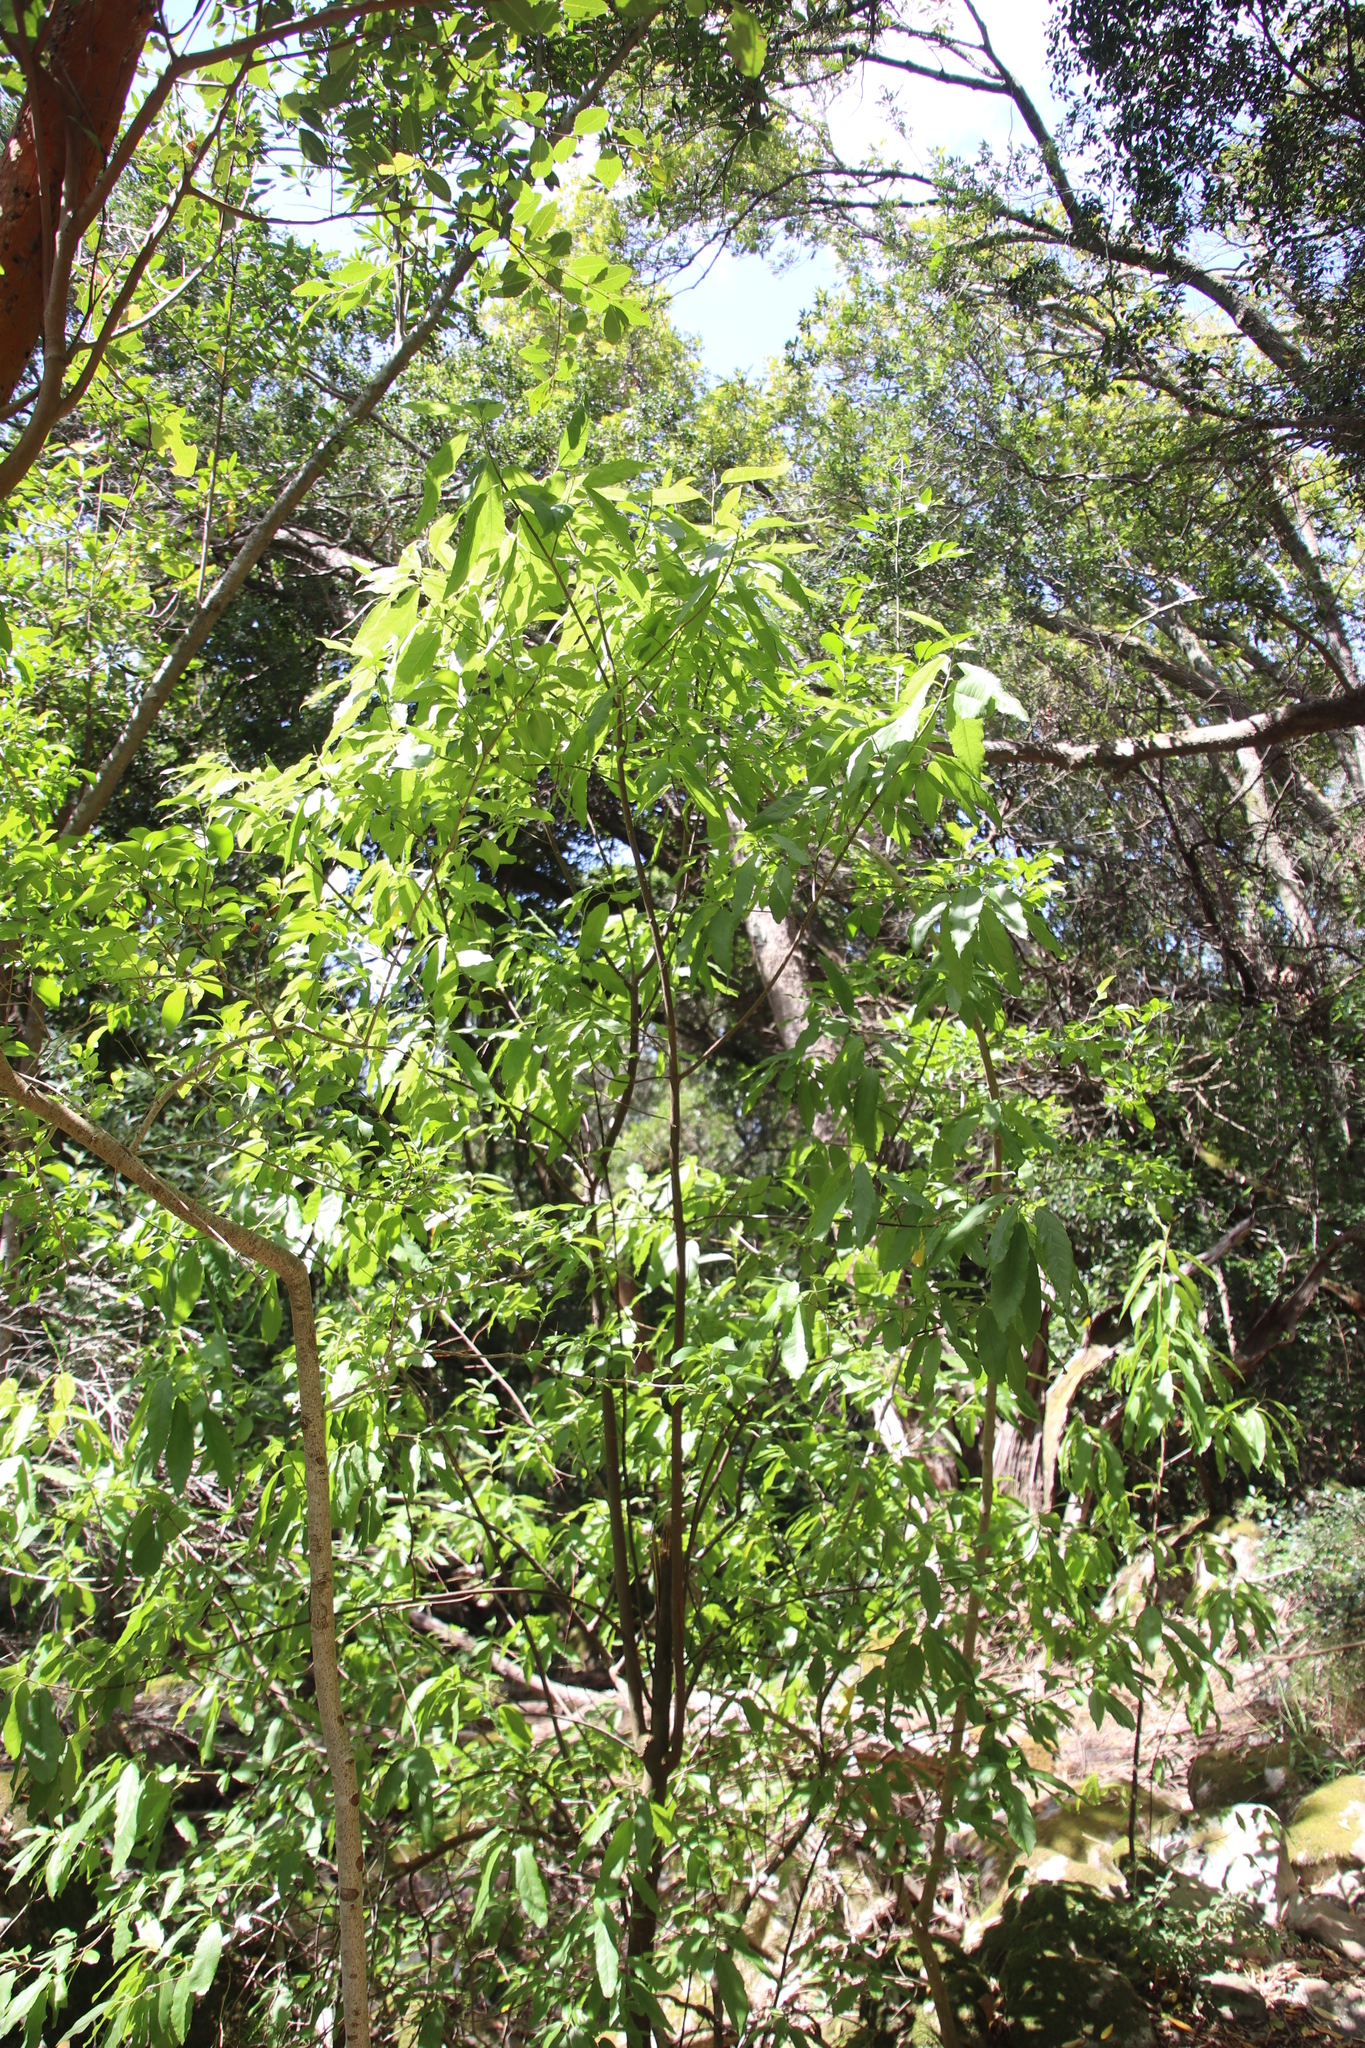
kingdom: Plantae
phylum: Tracheophyta
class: Magnoliopsida
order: Malpighiales
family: Achariaceae
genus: Kiggelaria
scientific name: Kiggelaria africana
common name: Wild peach
